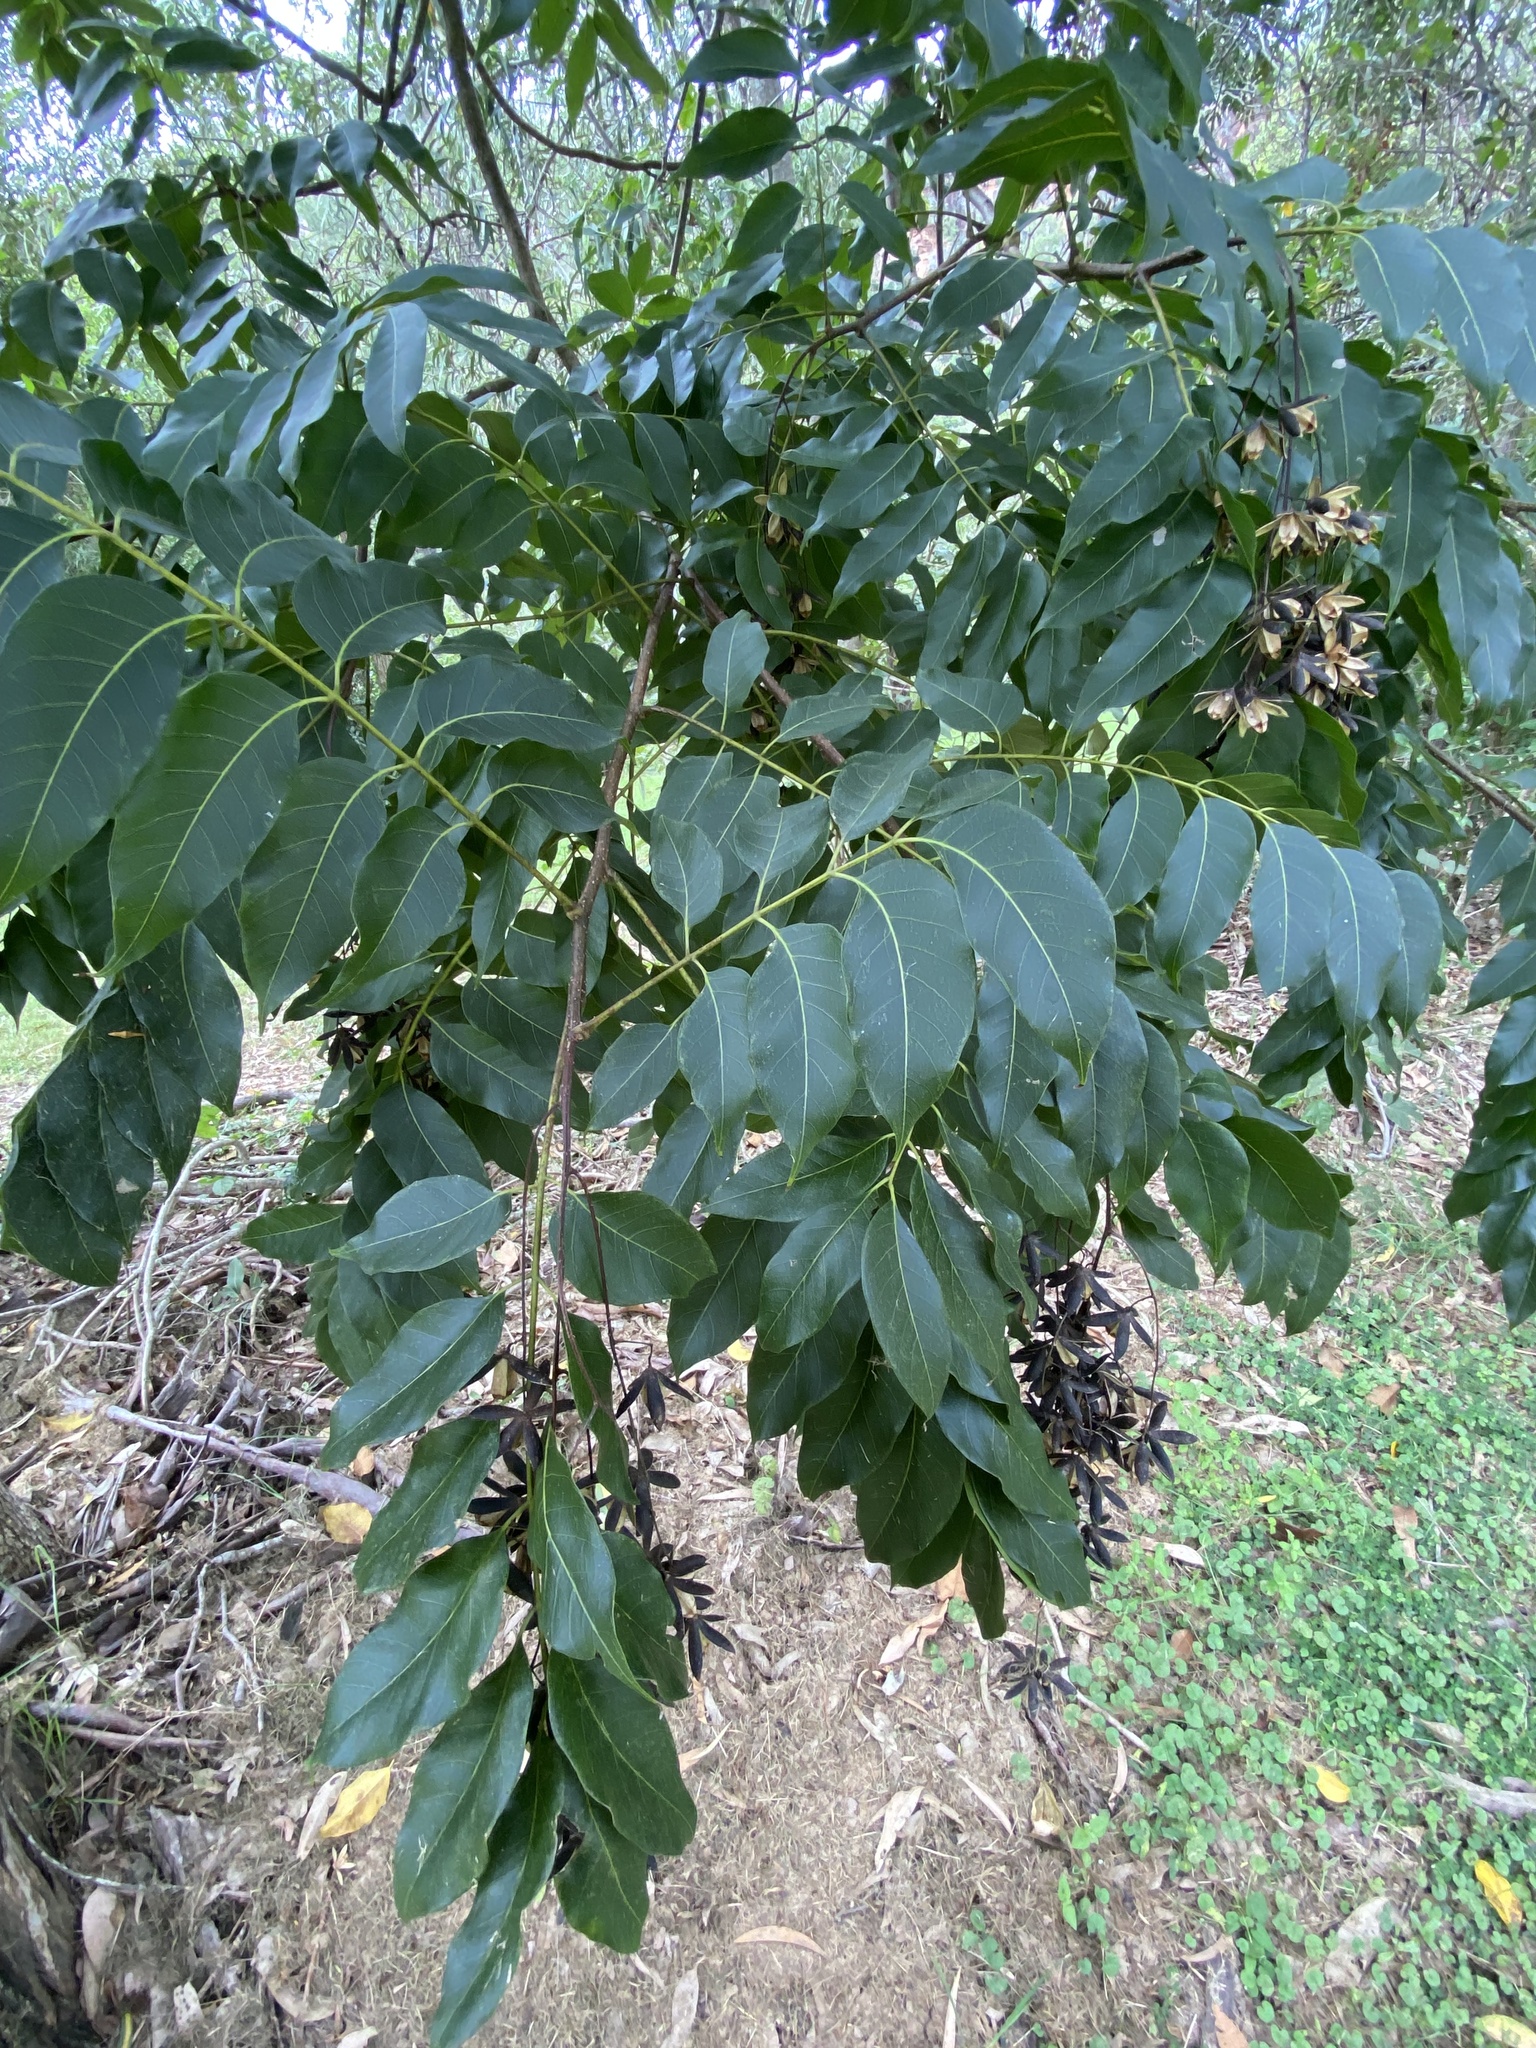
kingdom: Plantae
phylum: Tracheophyta
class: Magnoliopsida
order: Sapindales
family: Meliaceae
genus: Toona
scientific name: Toona ciliata
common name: Australian redcedar
